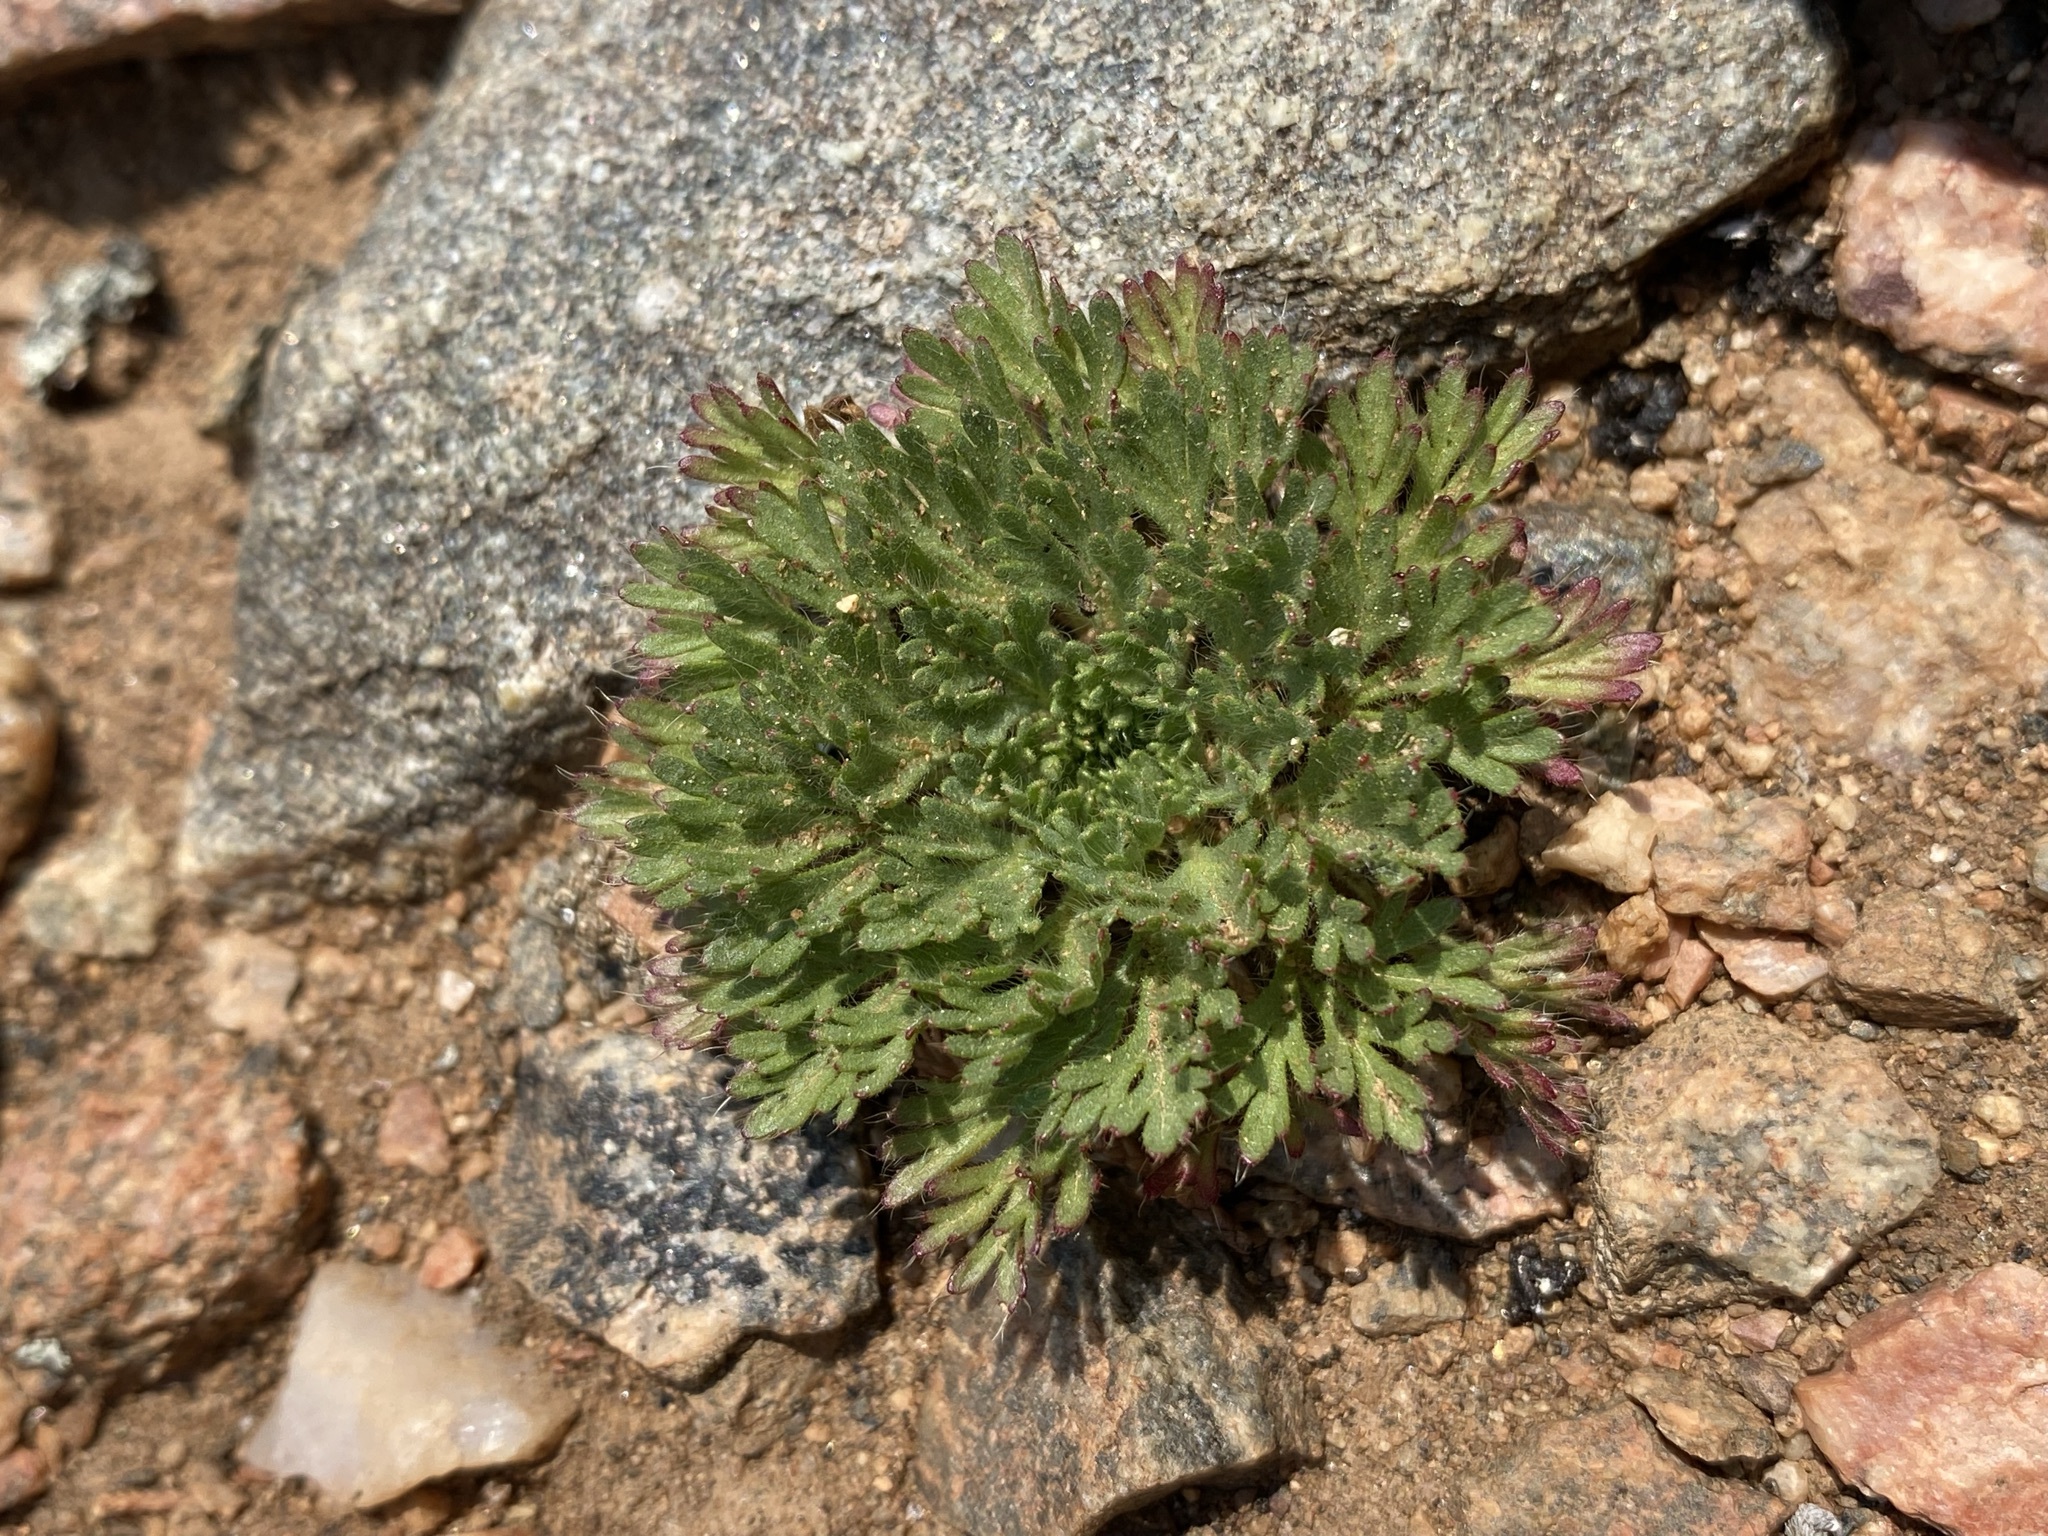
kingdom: Plantae
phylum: Tracheophyta
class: Magnoliopsida
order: Rosales
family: Rosaceae
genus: Chamaerhodos
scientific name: Chamaerhodos erecta
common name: American chamaerhodos
